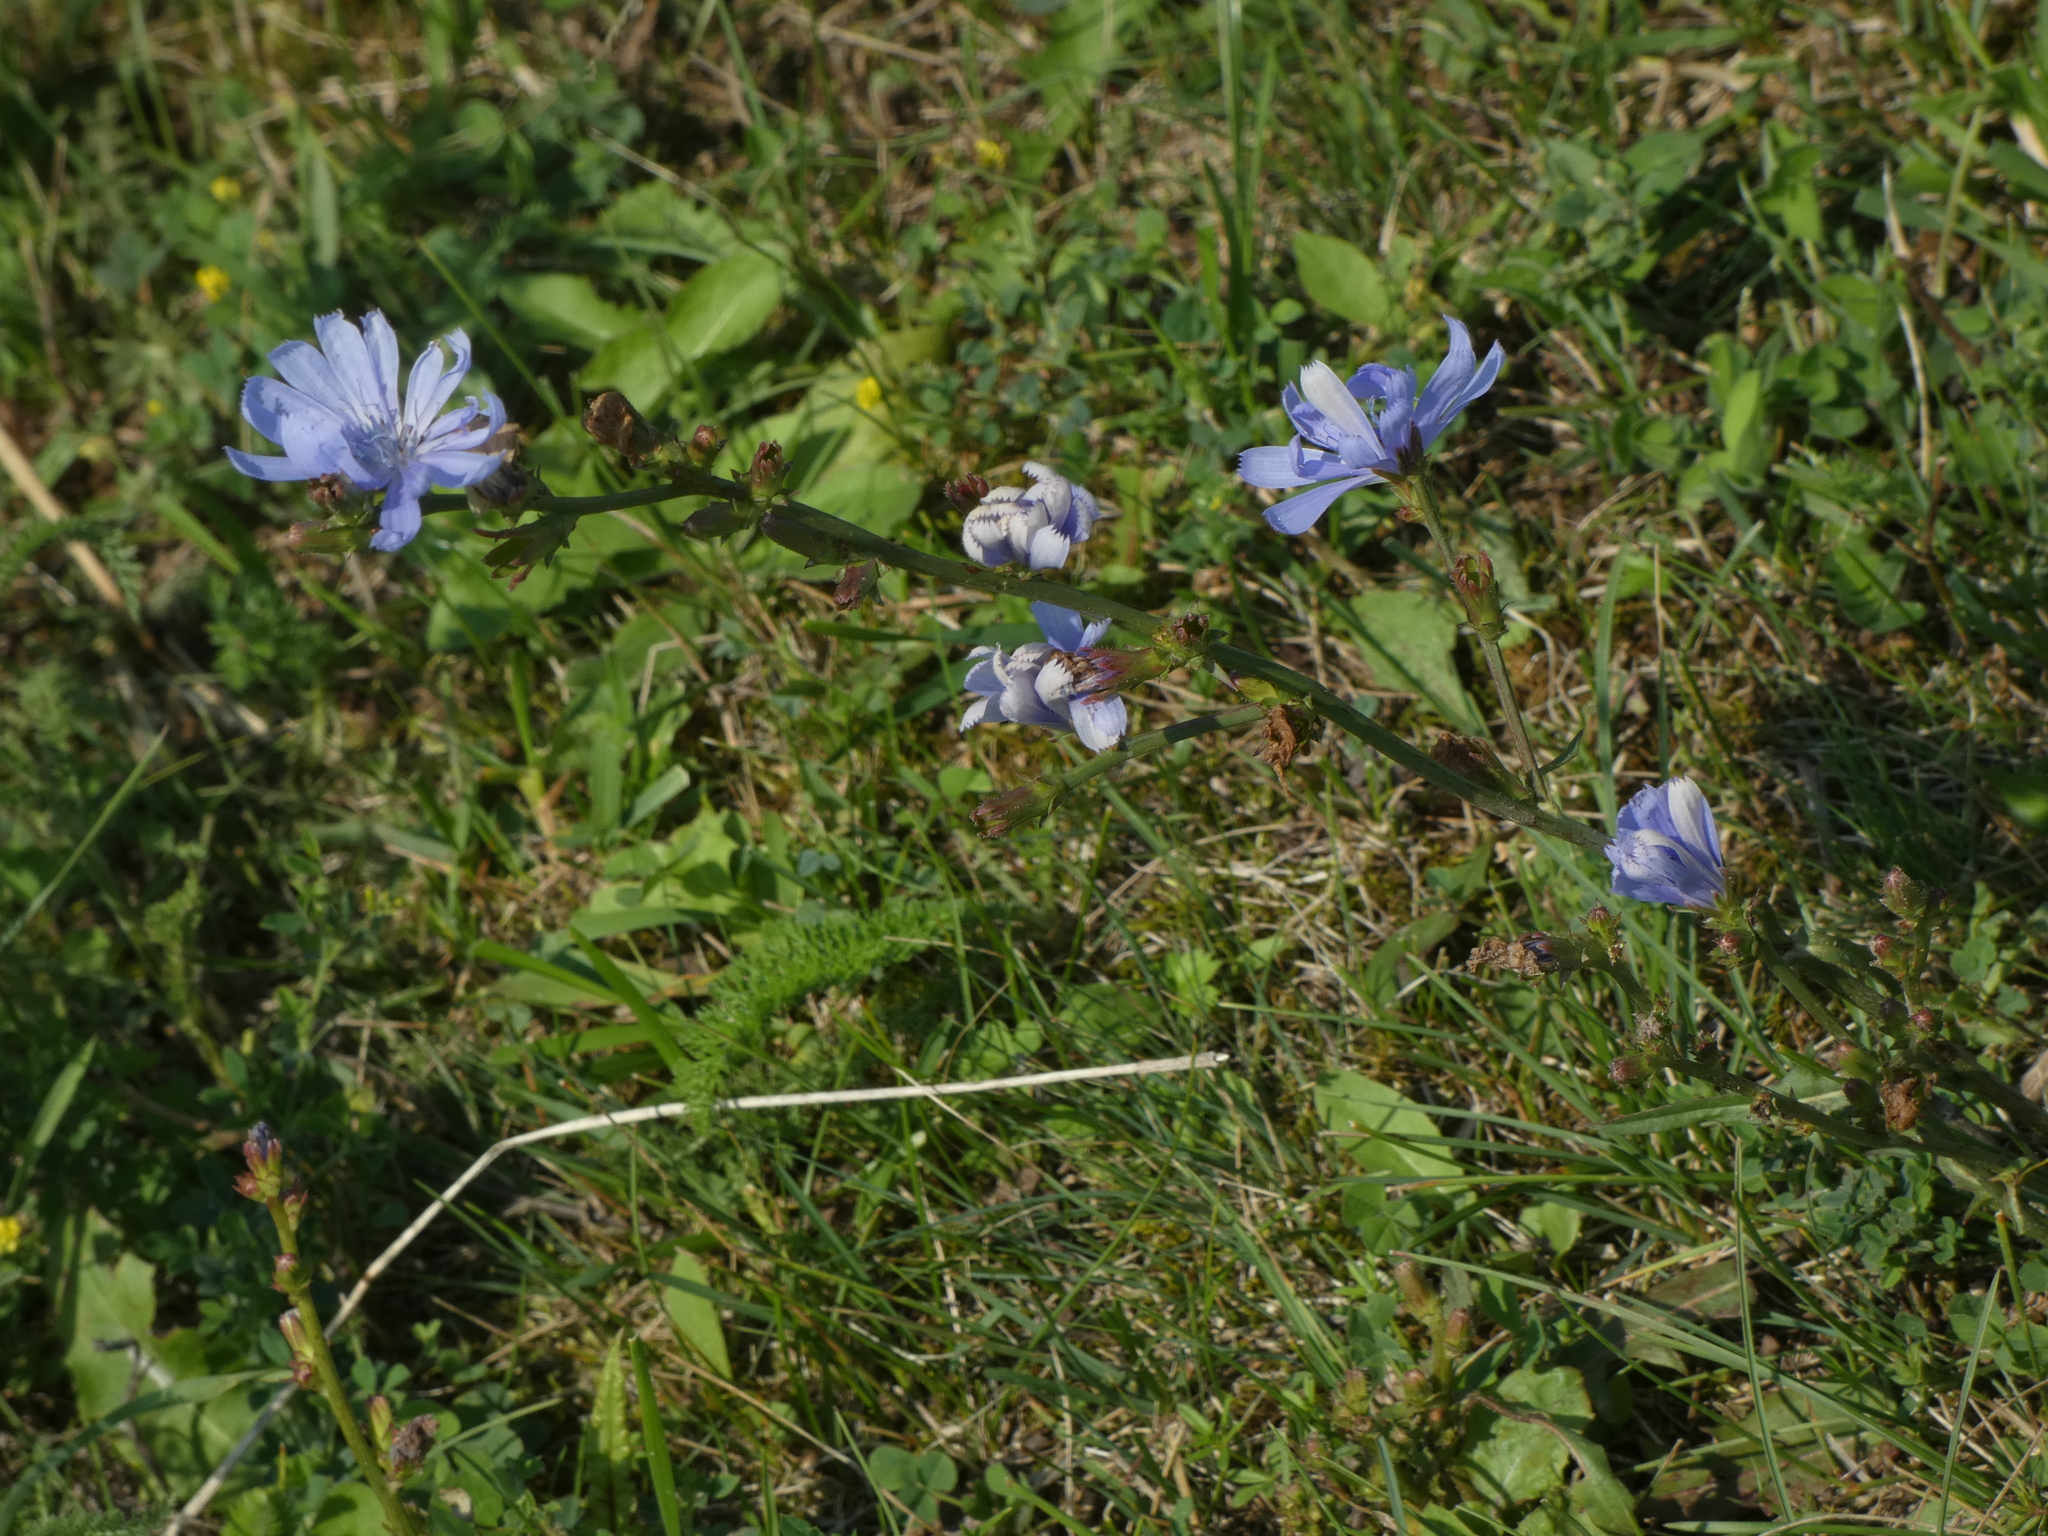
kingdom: Plantae
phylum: Tracheophyta
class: Magnoliopsida
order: Asterales
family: Asteraceae
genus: Cichorium
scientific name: Cichorium intybus
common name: Chicory
